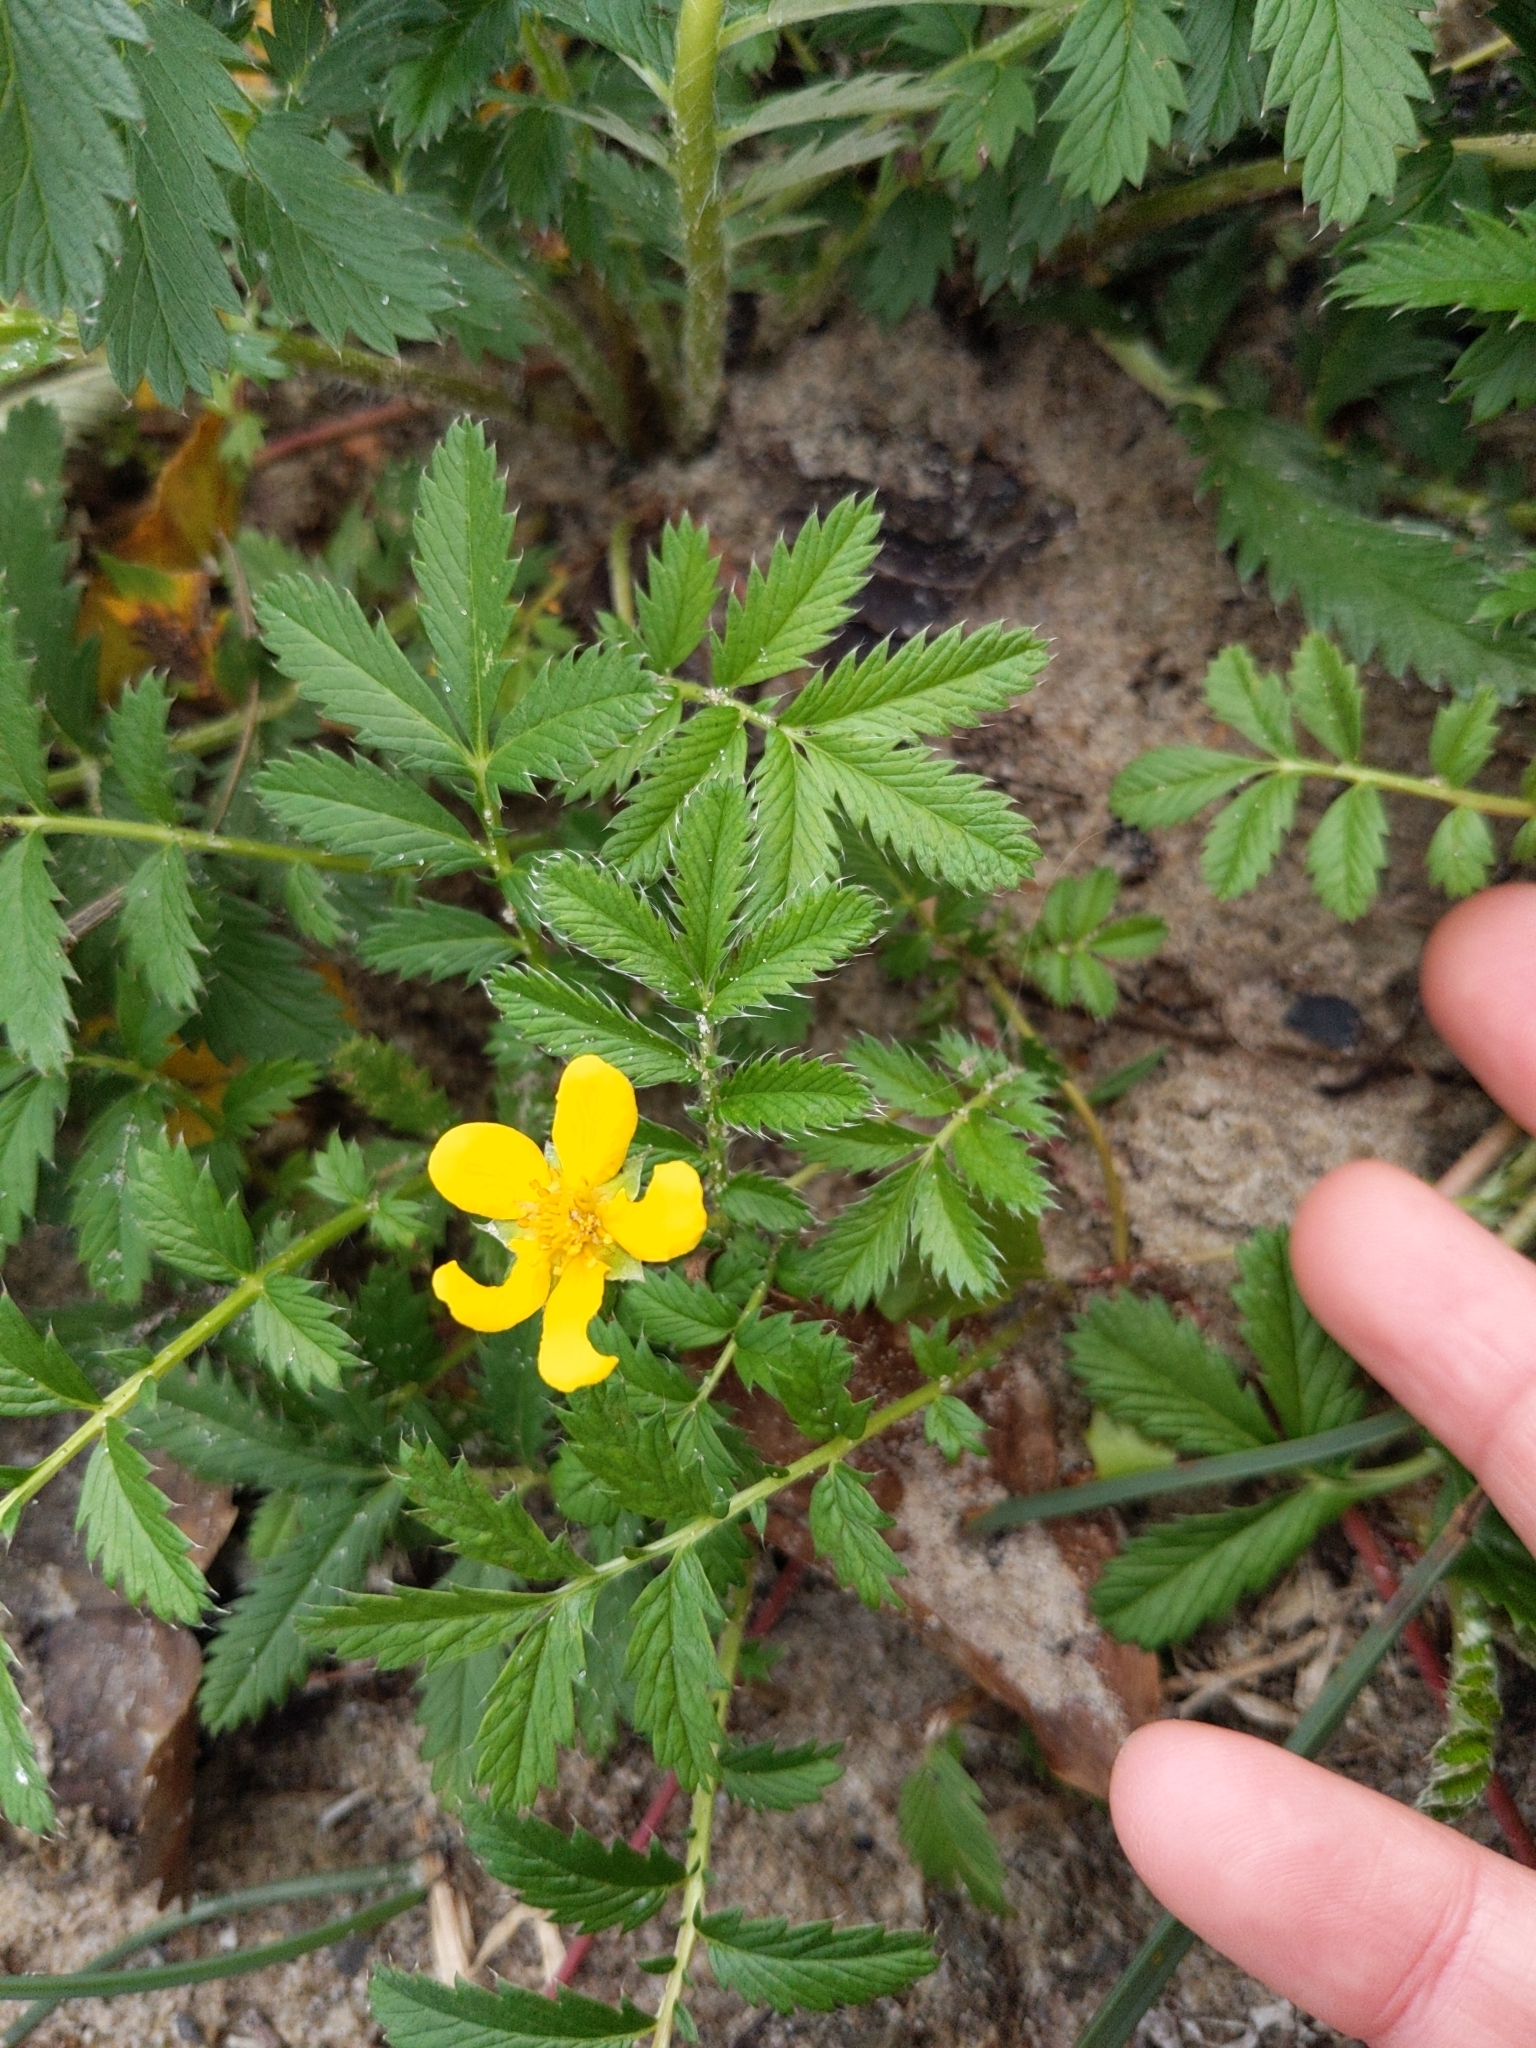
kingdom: Plantae
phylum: Tracheophyta
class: Magnoliopsida
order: Rosales
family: Rosaceae
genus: Argentina
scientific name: Argentina anserina
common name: Common silverweed
